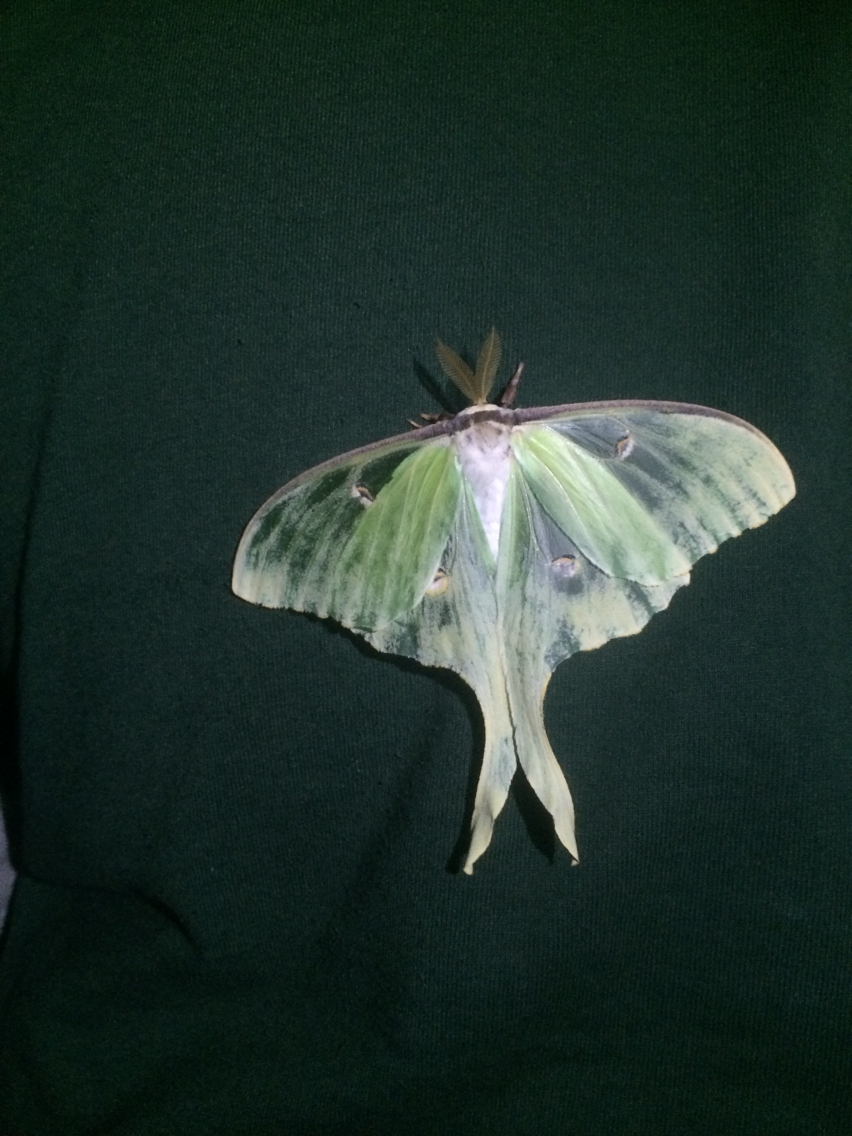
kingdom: Animalia
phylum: Arthropoda
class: Insecta
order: Lepidoptera
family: Saturniidae
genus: Actias
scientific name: Actias luna
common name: Luna moth
